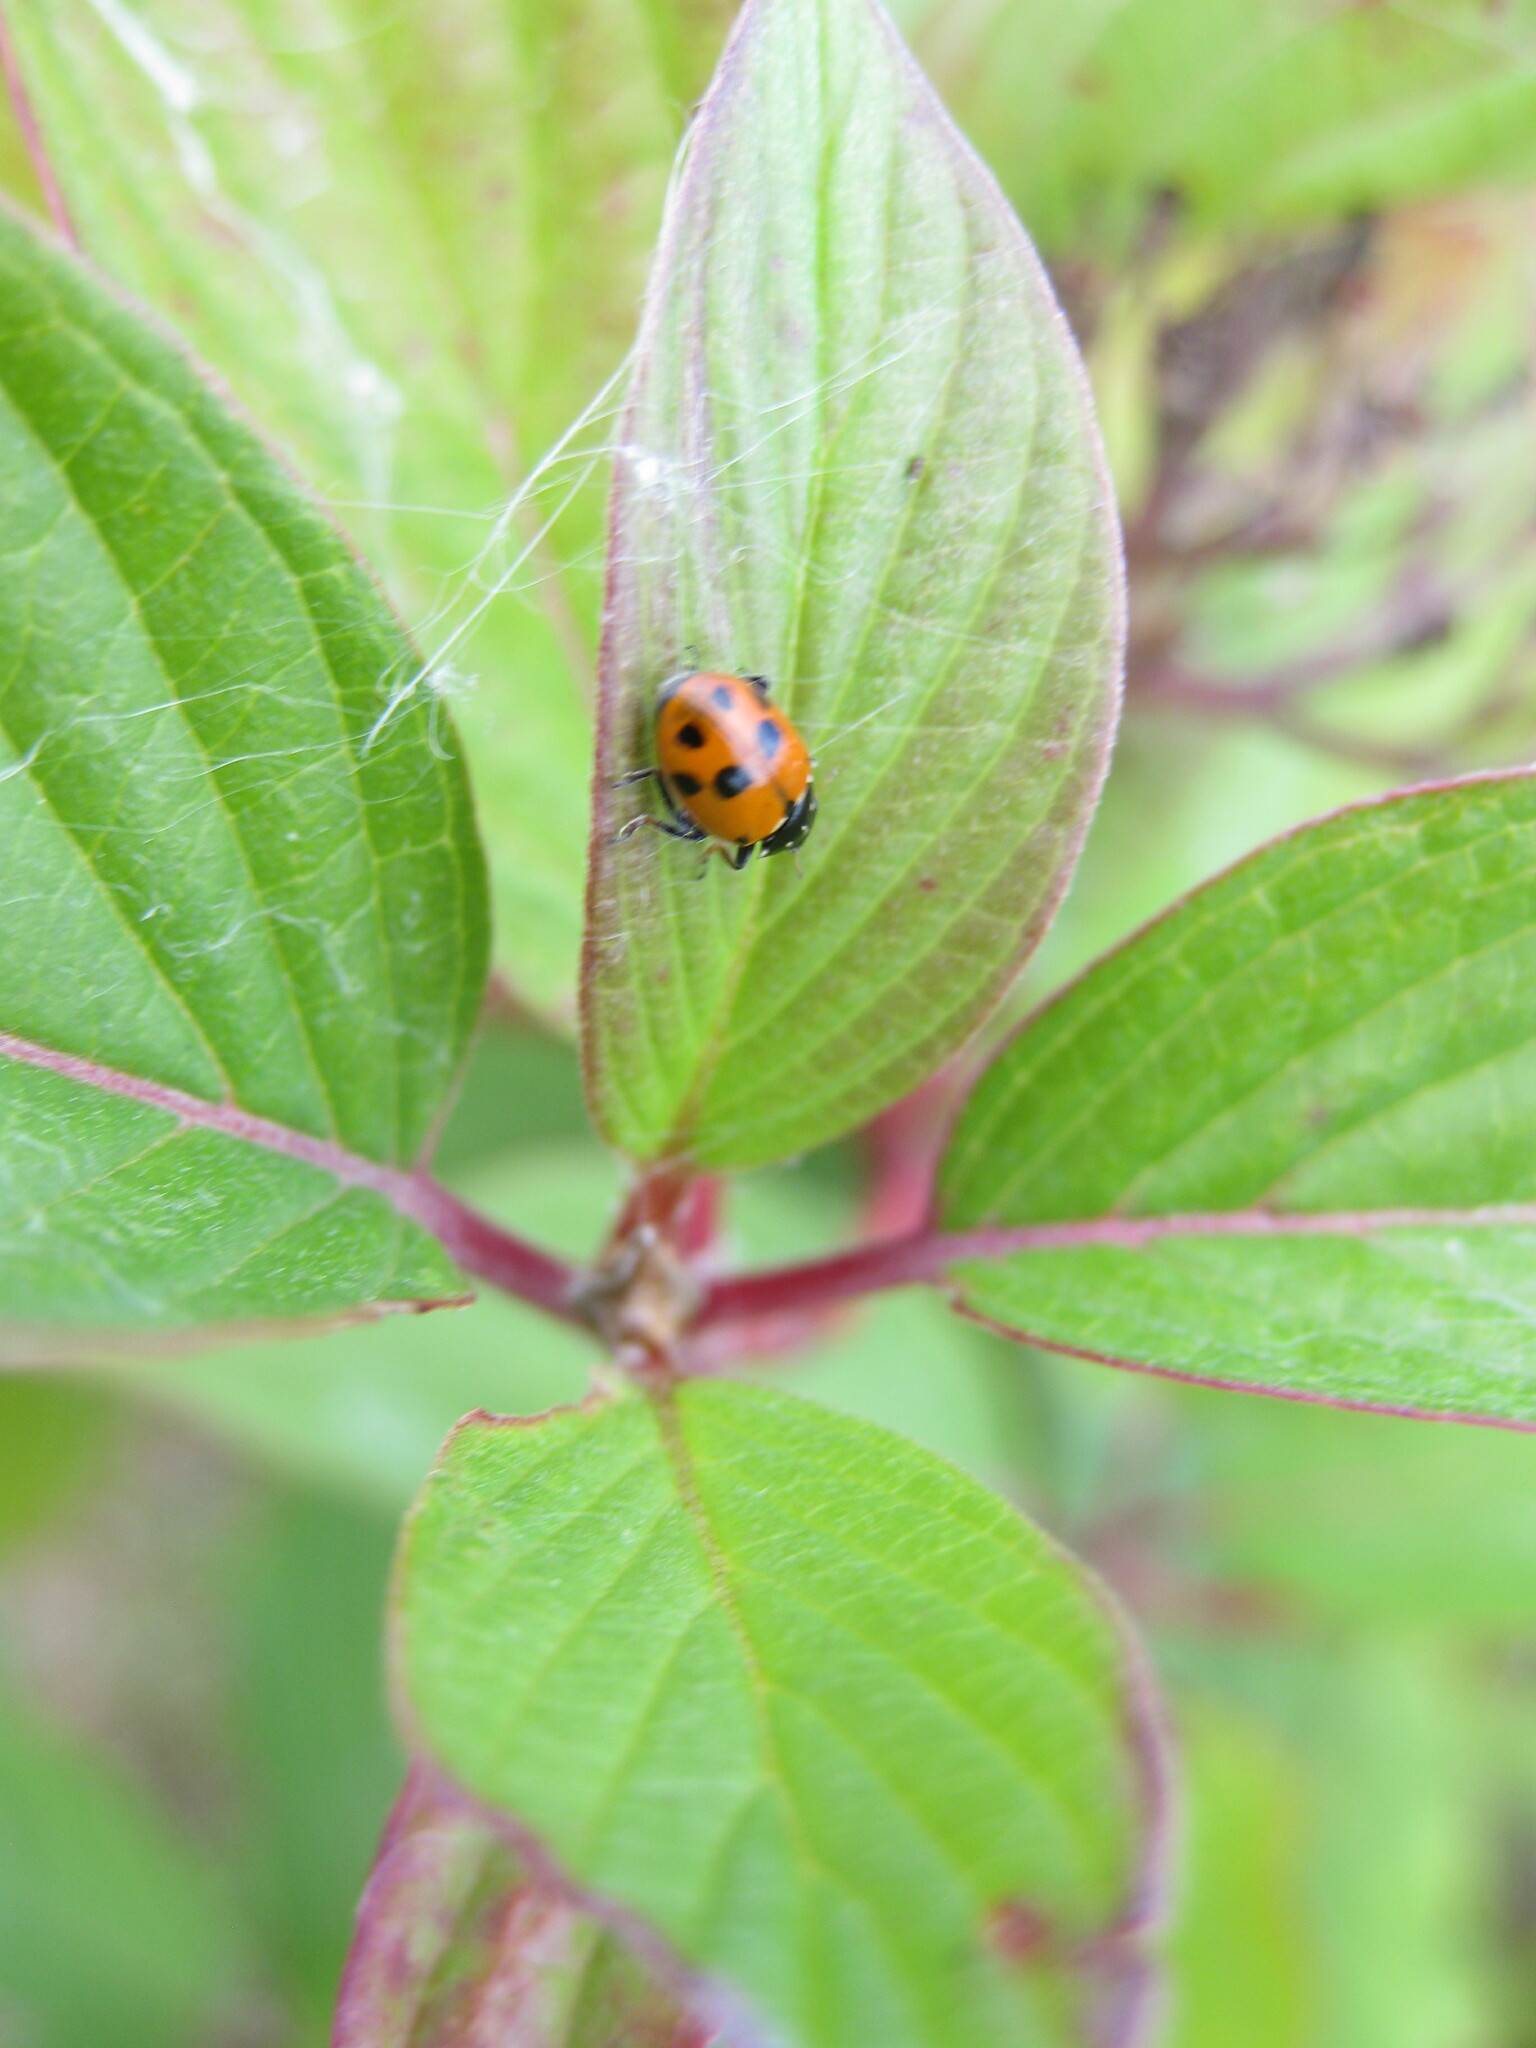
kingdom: Animalia
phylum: Arthropoda
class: Insecta
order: Coleoptera
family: Coccinellidae
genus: Hippodamia
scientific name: Hippodamia variegata
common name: Ladybird beetle
